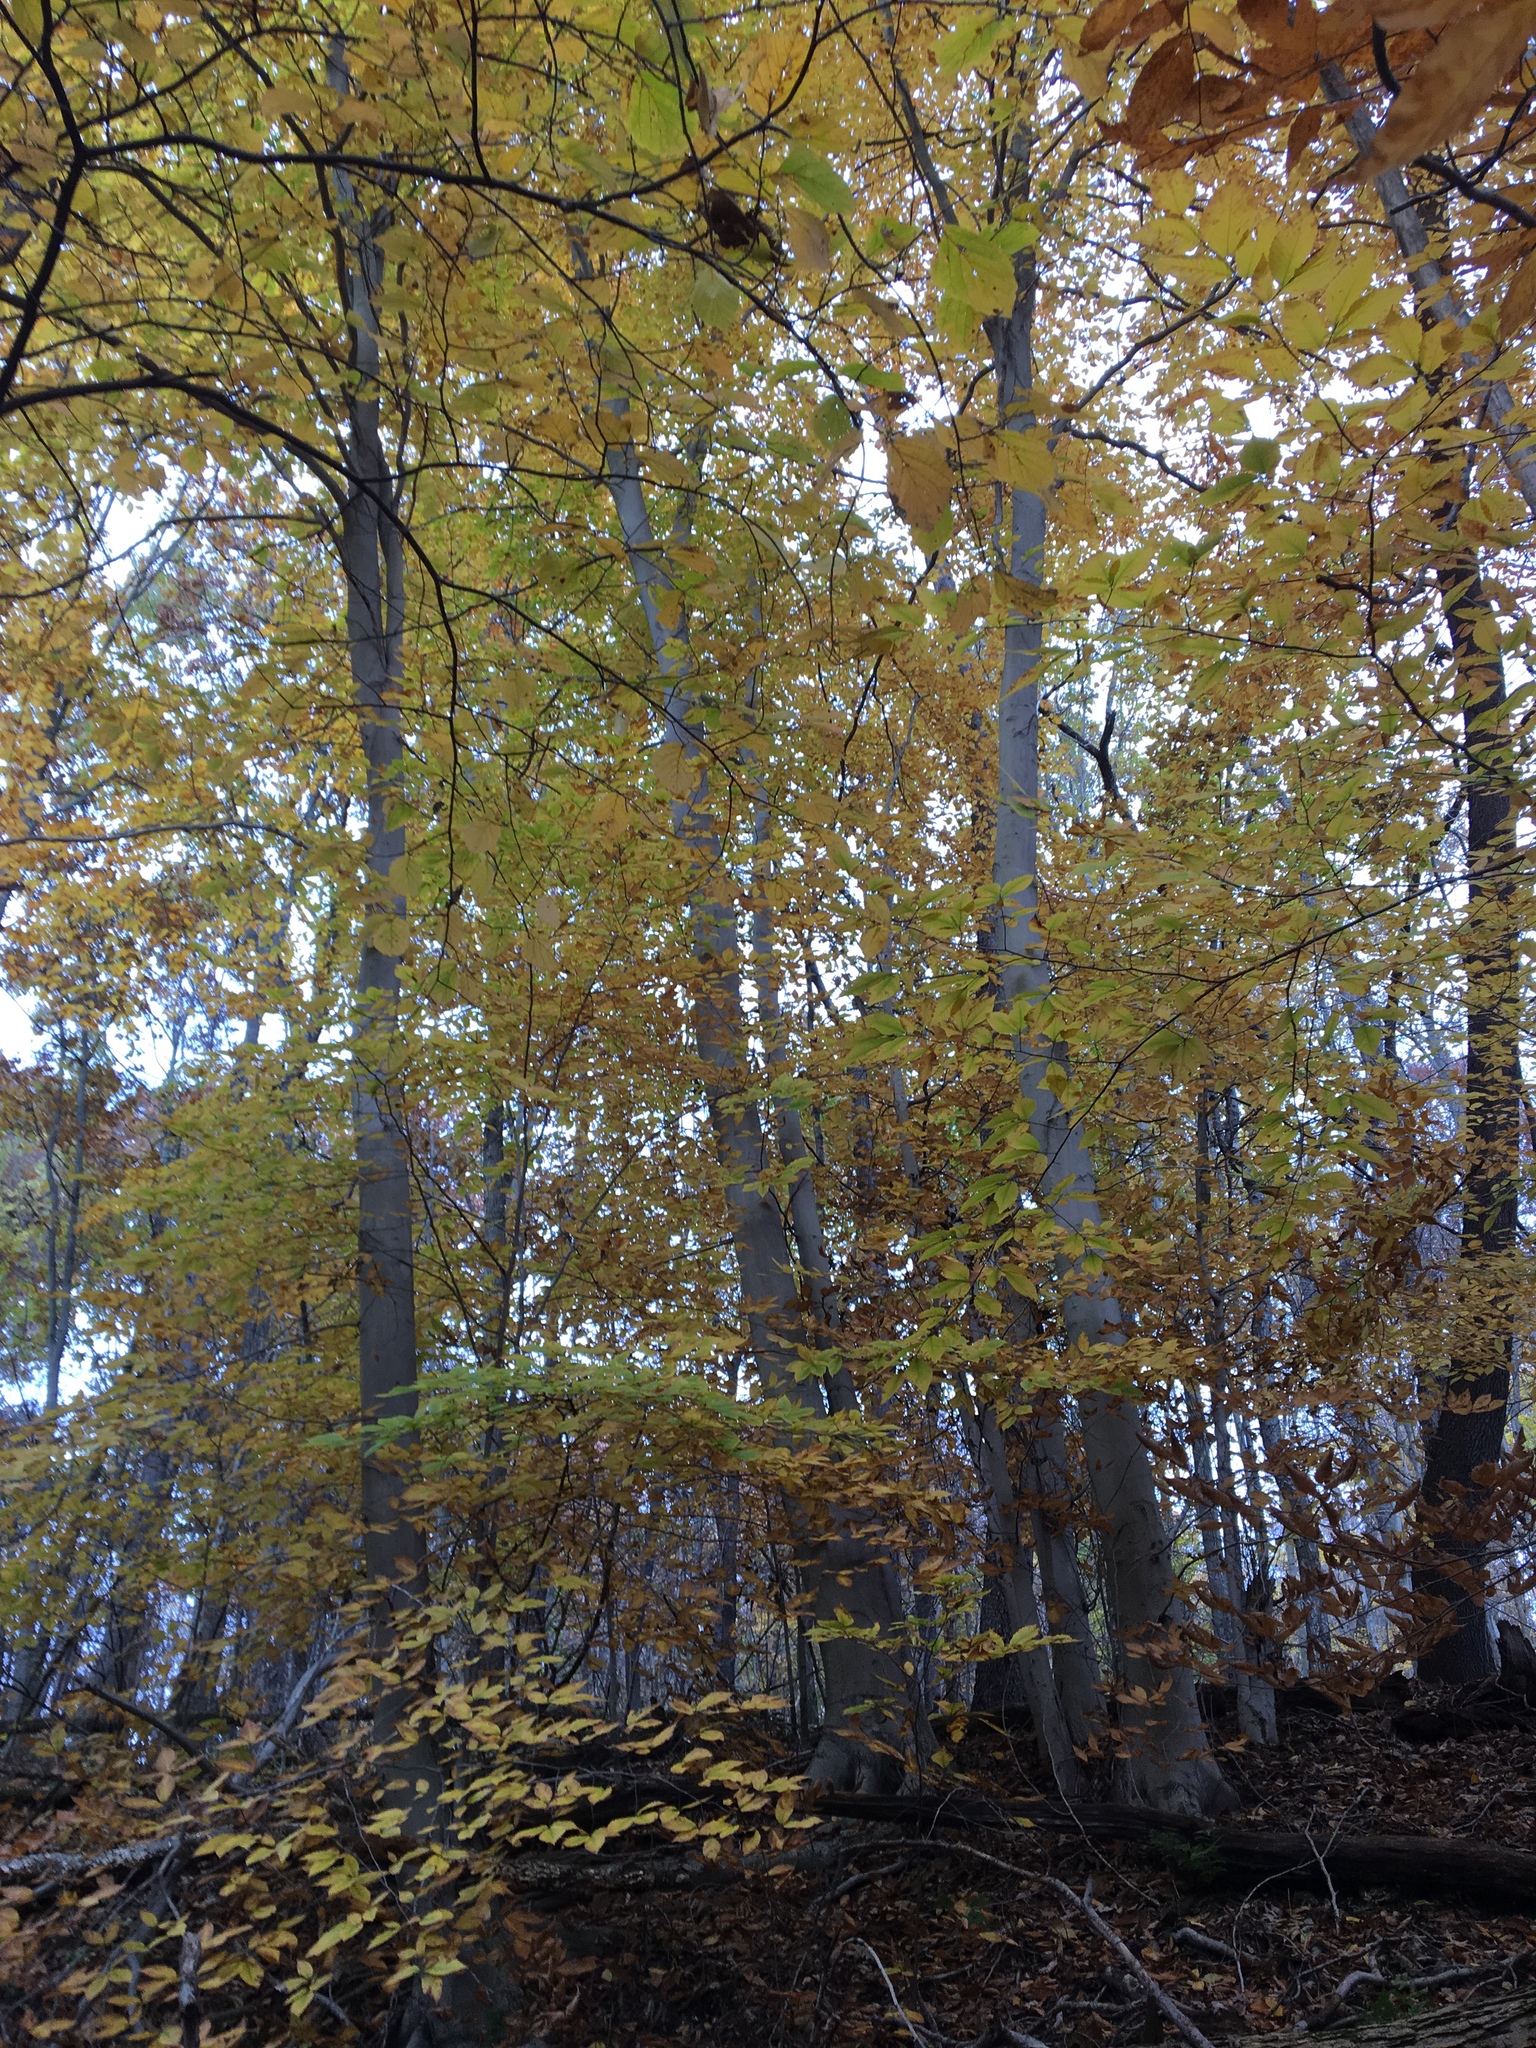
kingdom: Plantae
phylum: Tracheophyta
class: Magnoliopsida
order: Fagales
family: Fagaceae
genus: Fagus
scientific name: Fagus grandifolia
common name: American beech
